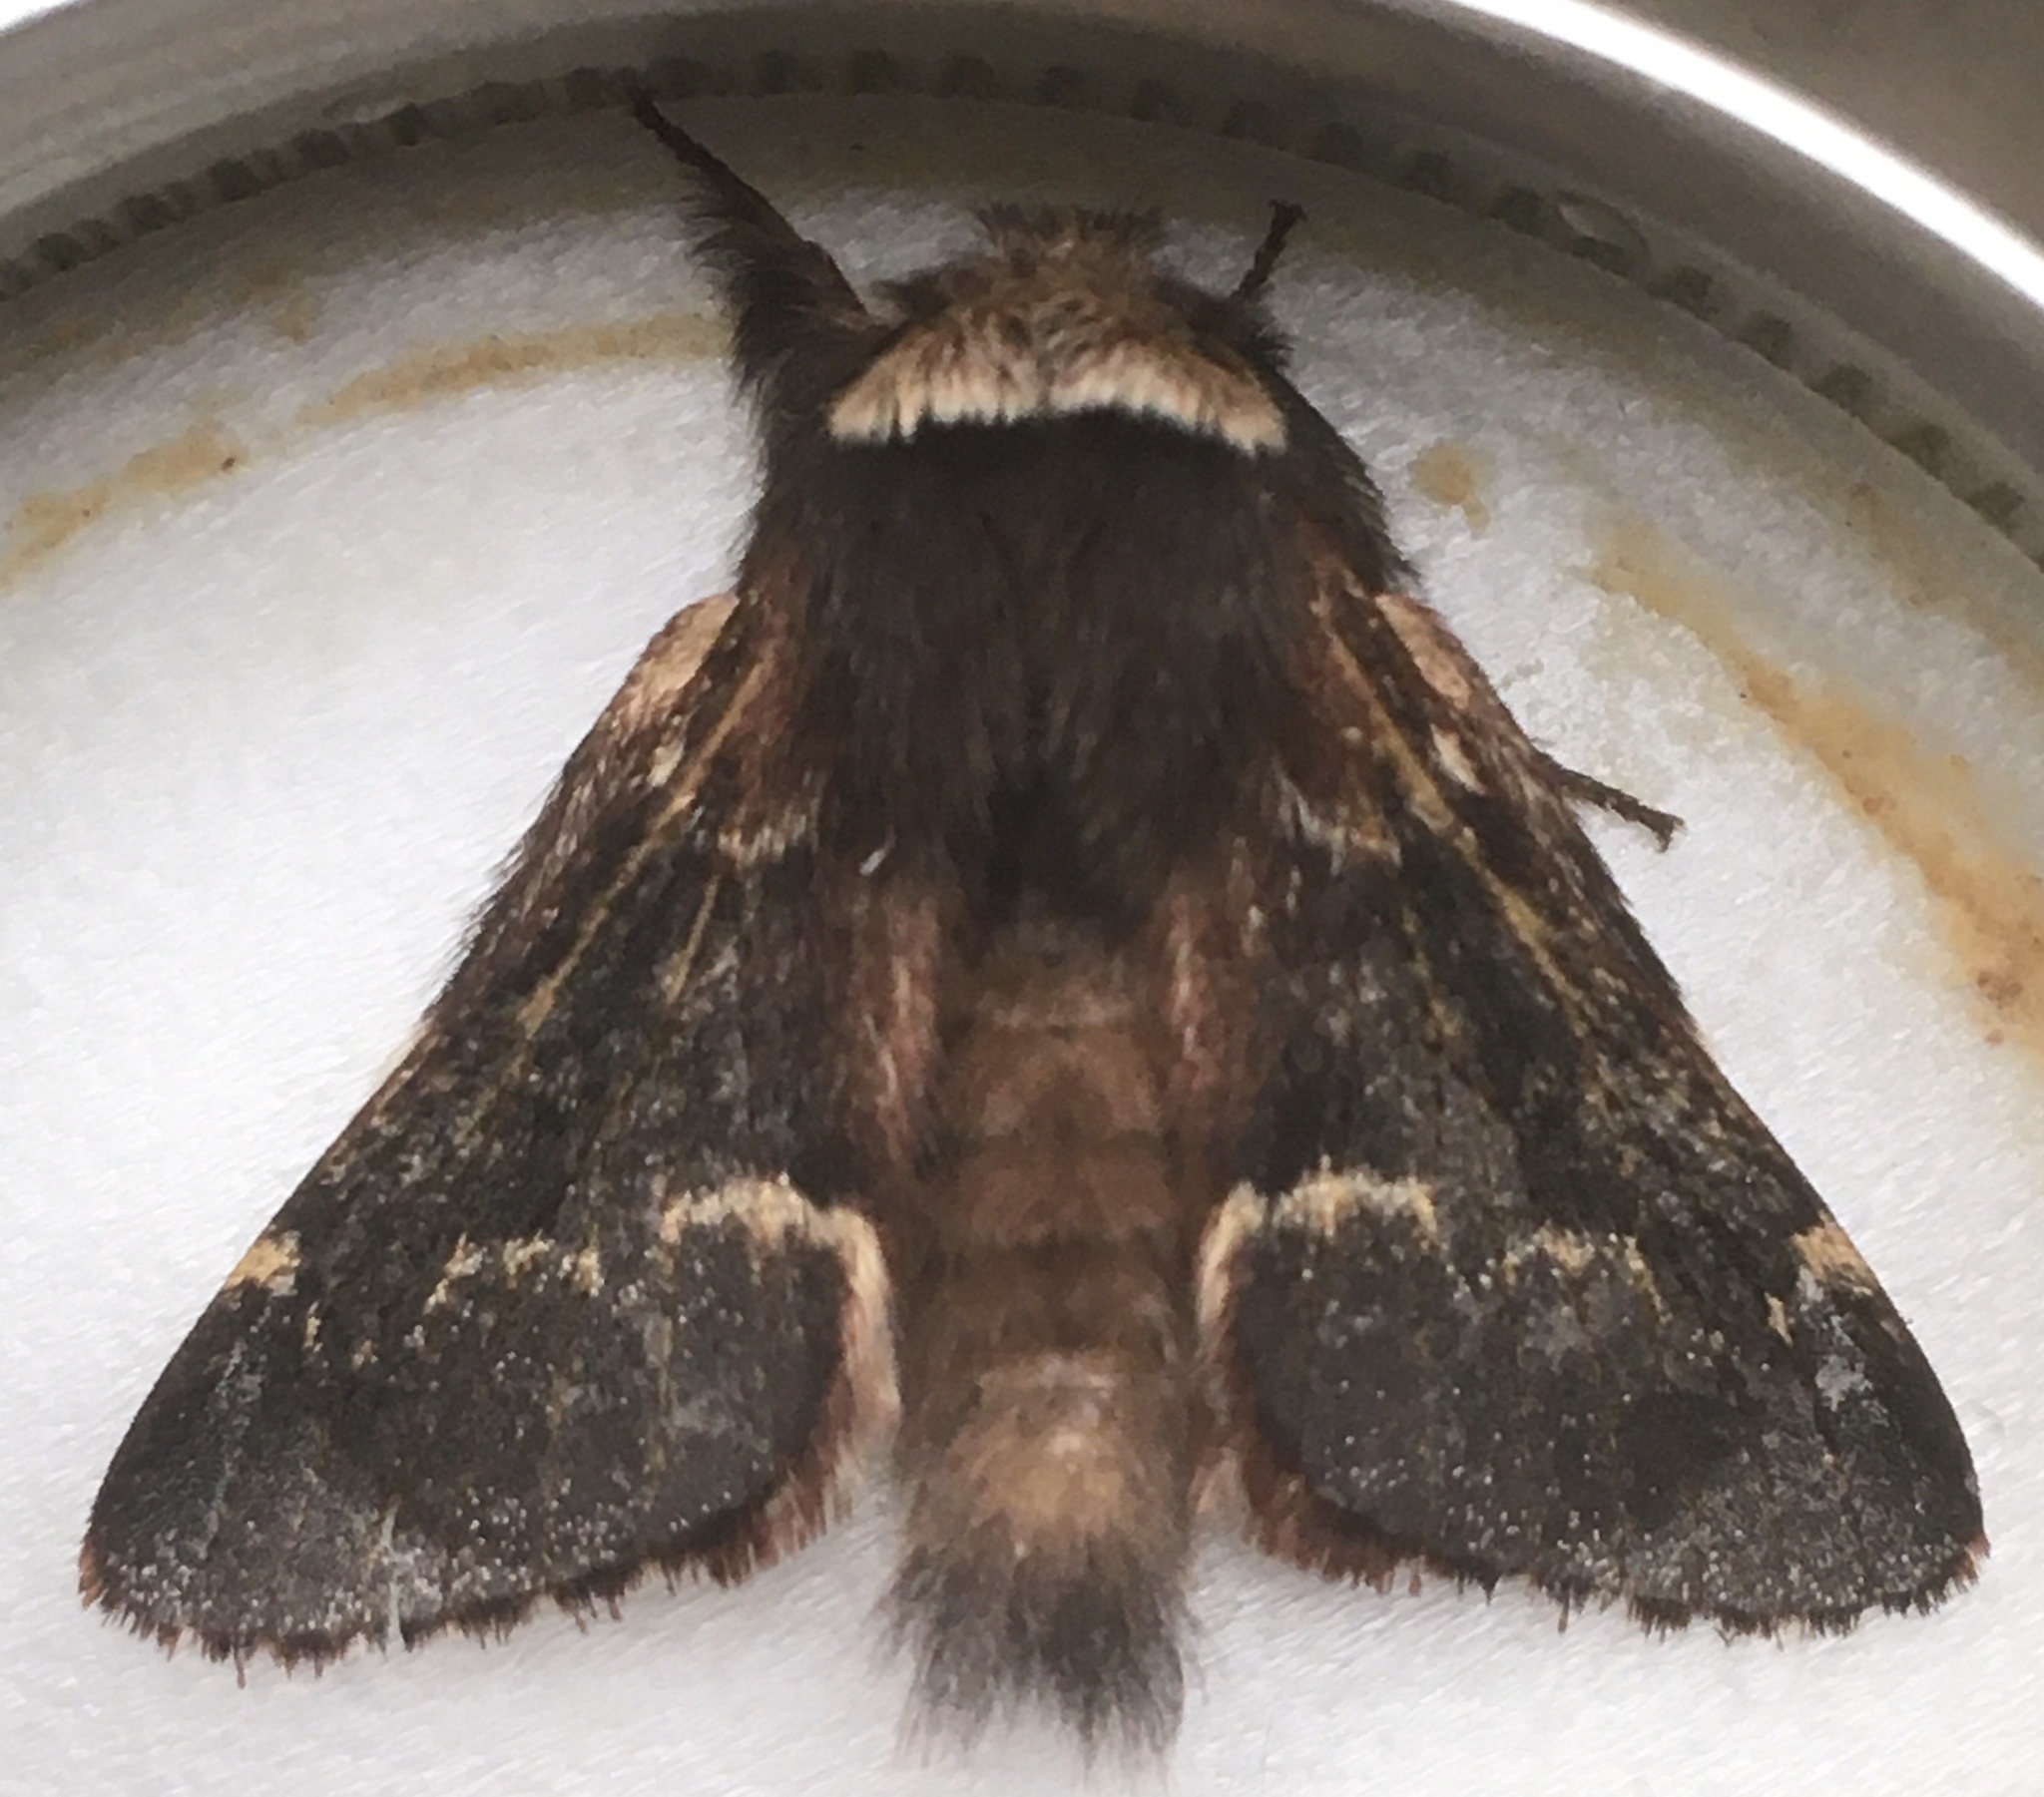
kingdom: Animalia
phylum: Arthropoda
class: Insecta
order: Lepidoptera
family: Lasiocampidae
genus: Poecilocampa
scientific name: Poecilocampa populi
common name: December moth
